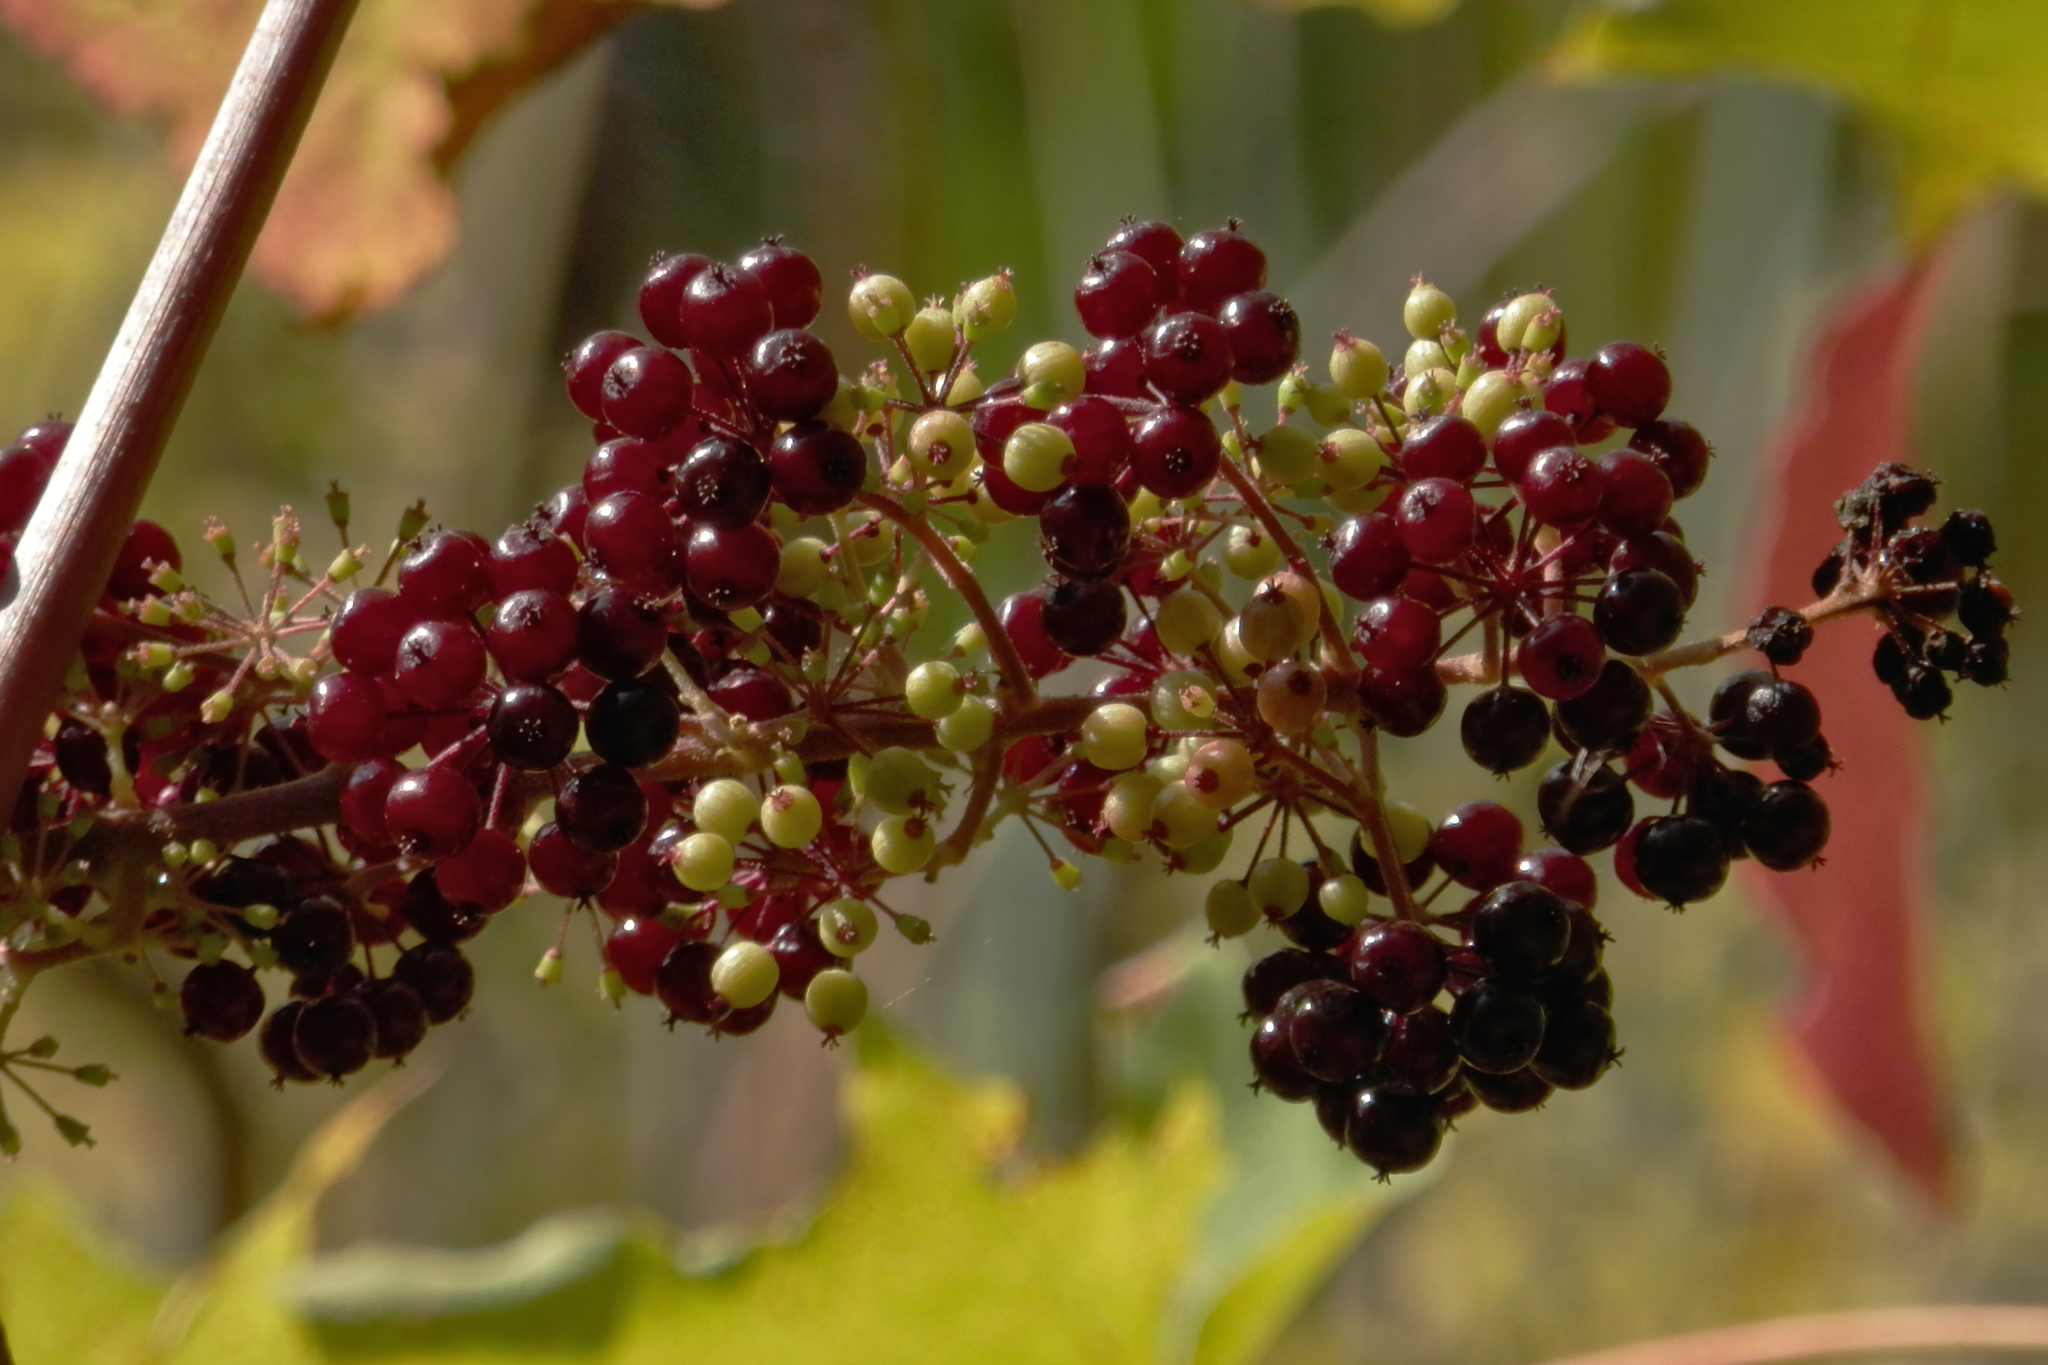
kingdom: Plantae
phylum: Tracheophyta
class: Magnoliopsida
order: Apiales
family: Araliaceae
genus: Aralia
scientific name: Aralia racemosa
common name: American-spikenard
